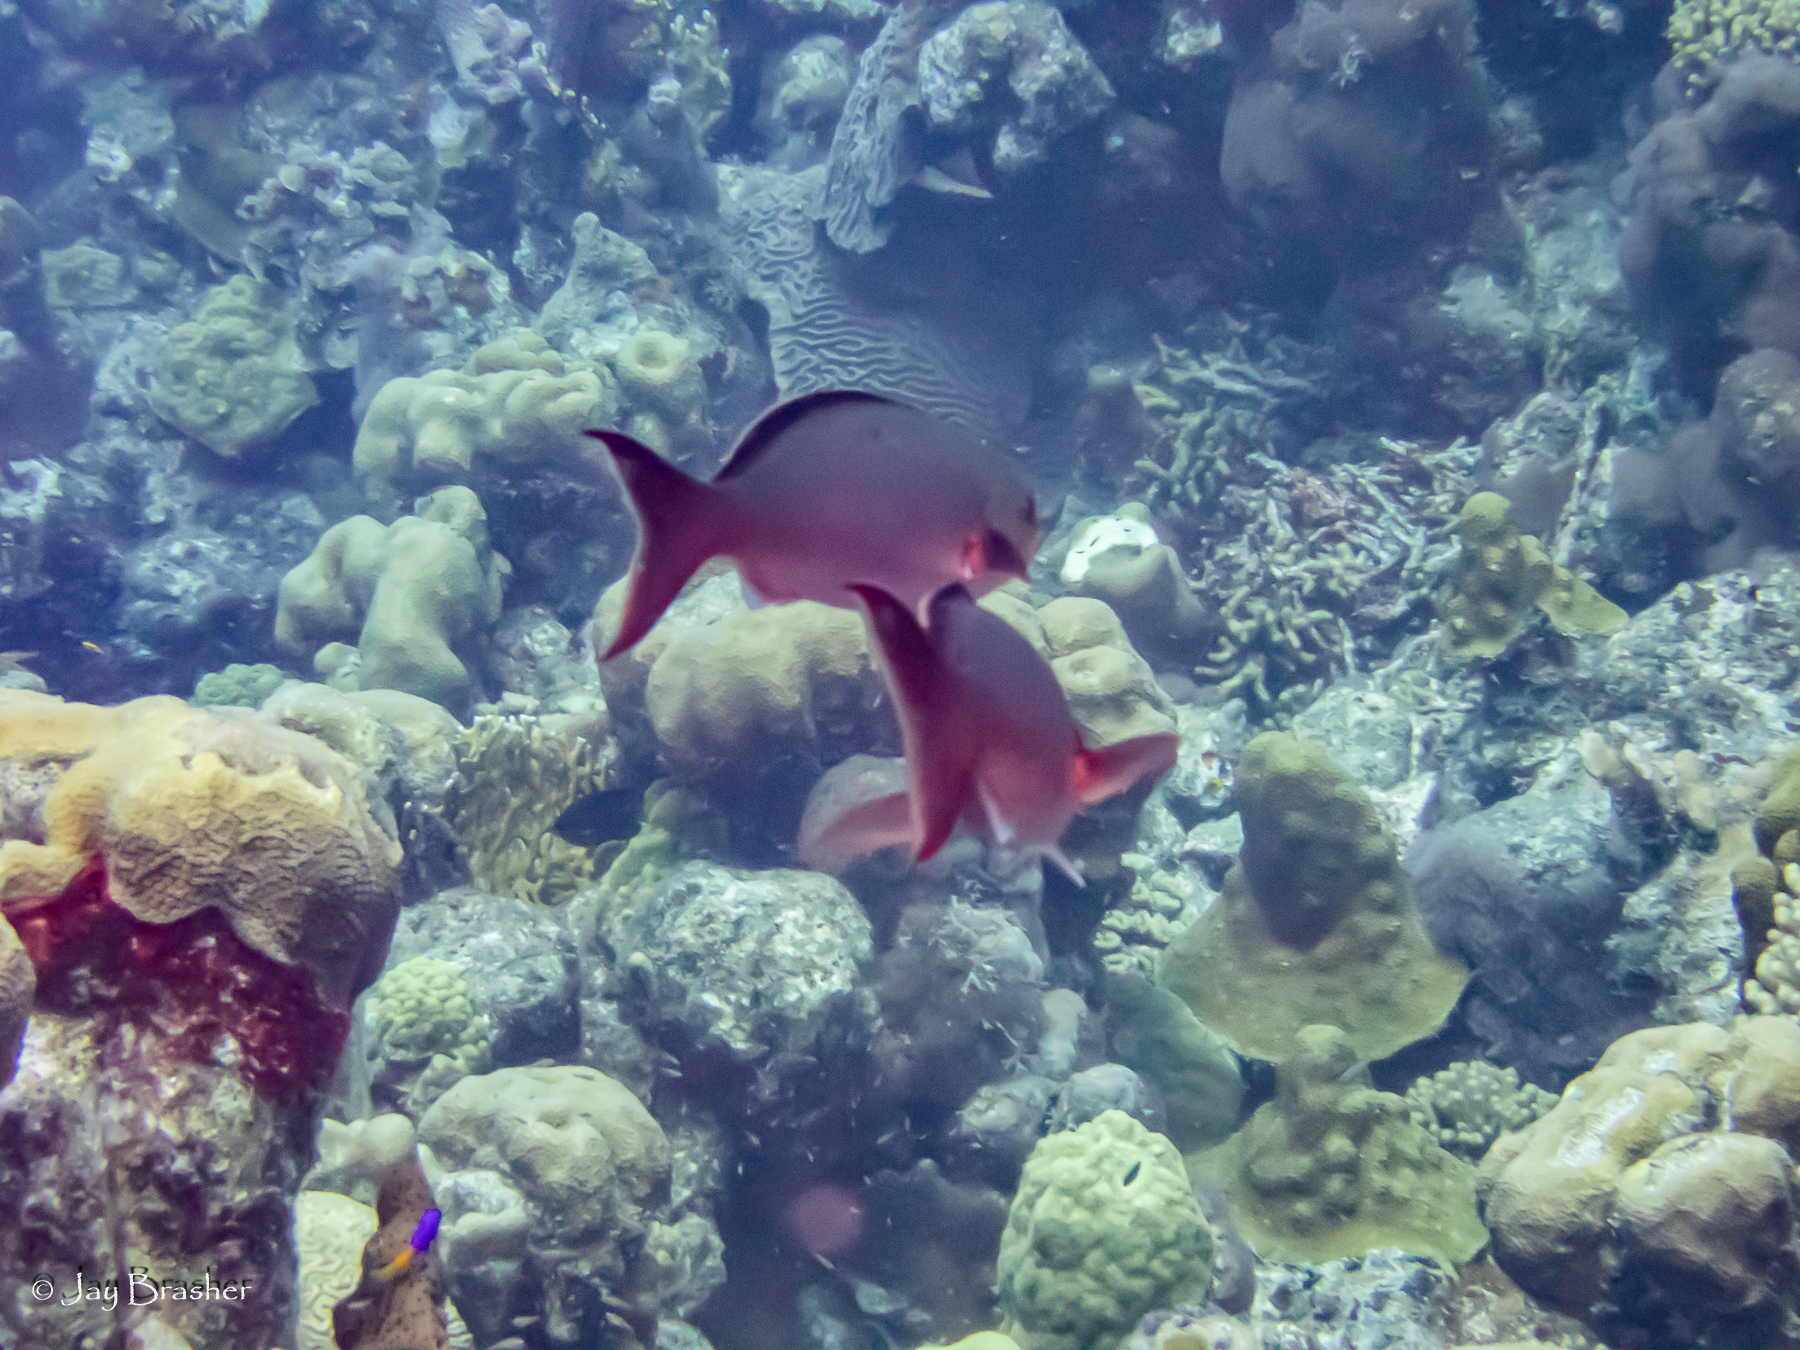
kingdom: Animalia
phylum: Chordata
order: Perciformes
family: Serranidae
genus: Paranthias
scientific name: Paranthias furcifer
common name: Creole-fish
